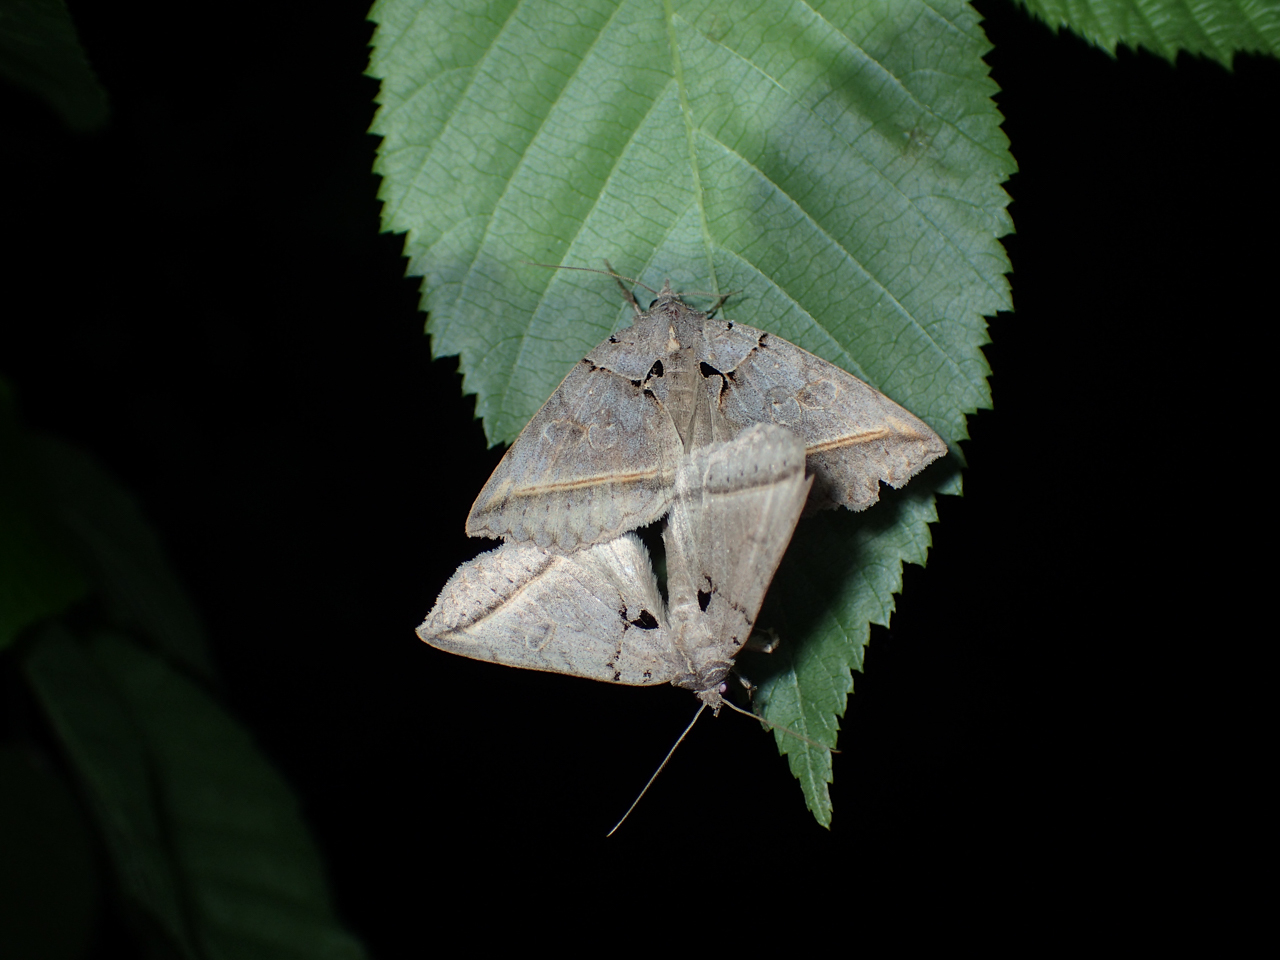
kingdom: Animalia
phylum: Arthropoda
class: Insecta
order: Lepidoptera
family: Erebidae
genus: Celiptera
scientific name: Celiptera frustulum
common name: Black bit moth
